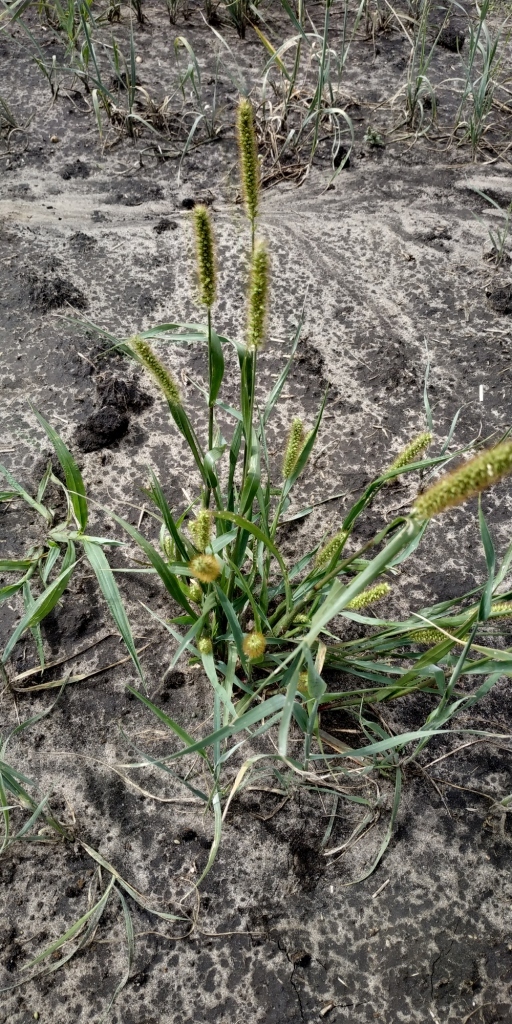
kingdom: Plantae
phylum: Tracheophyta
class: Liliopsida
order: Poales
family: Poaceae
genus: Setaria
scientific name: Setaria pumila
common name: Yellow bristle-grass
